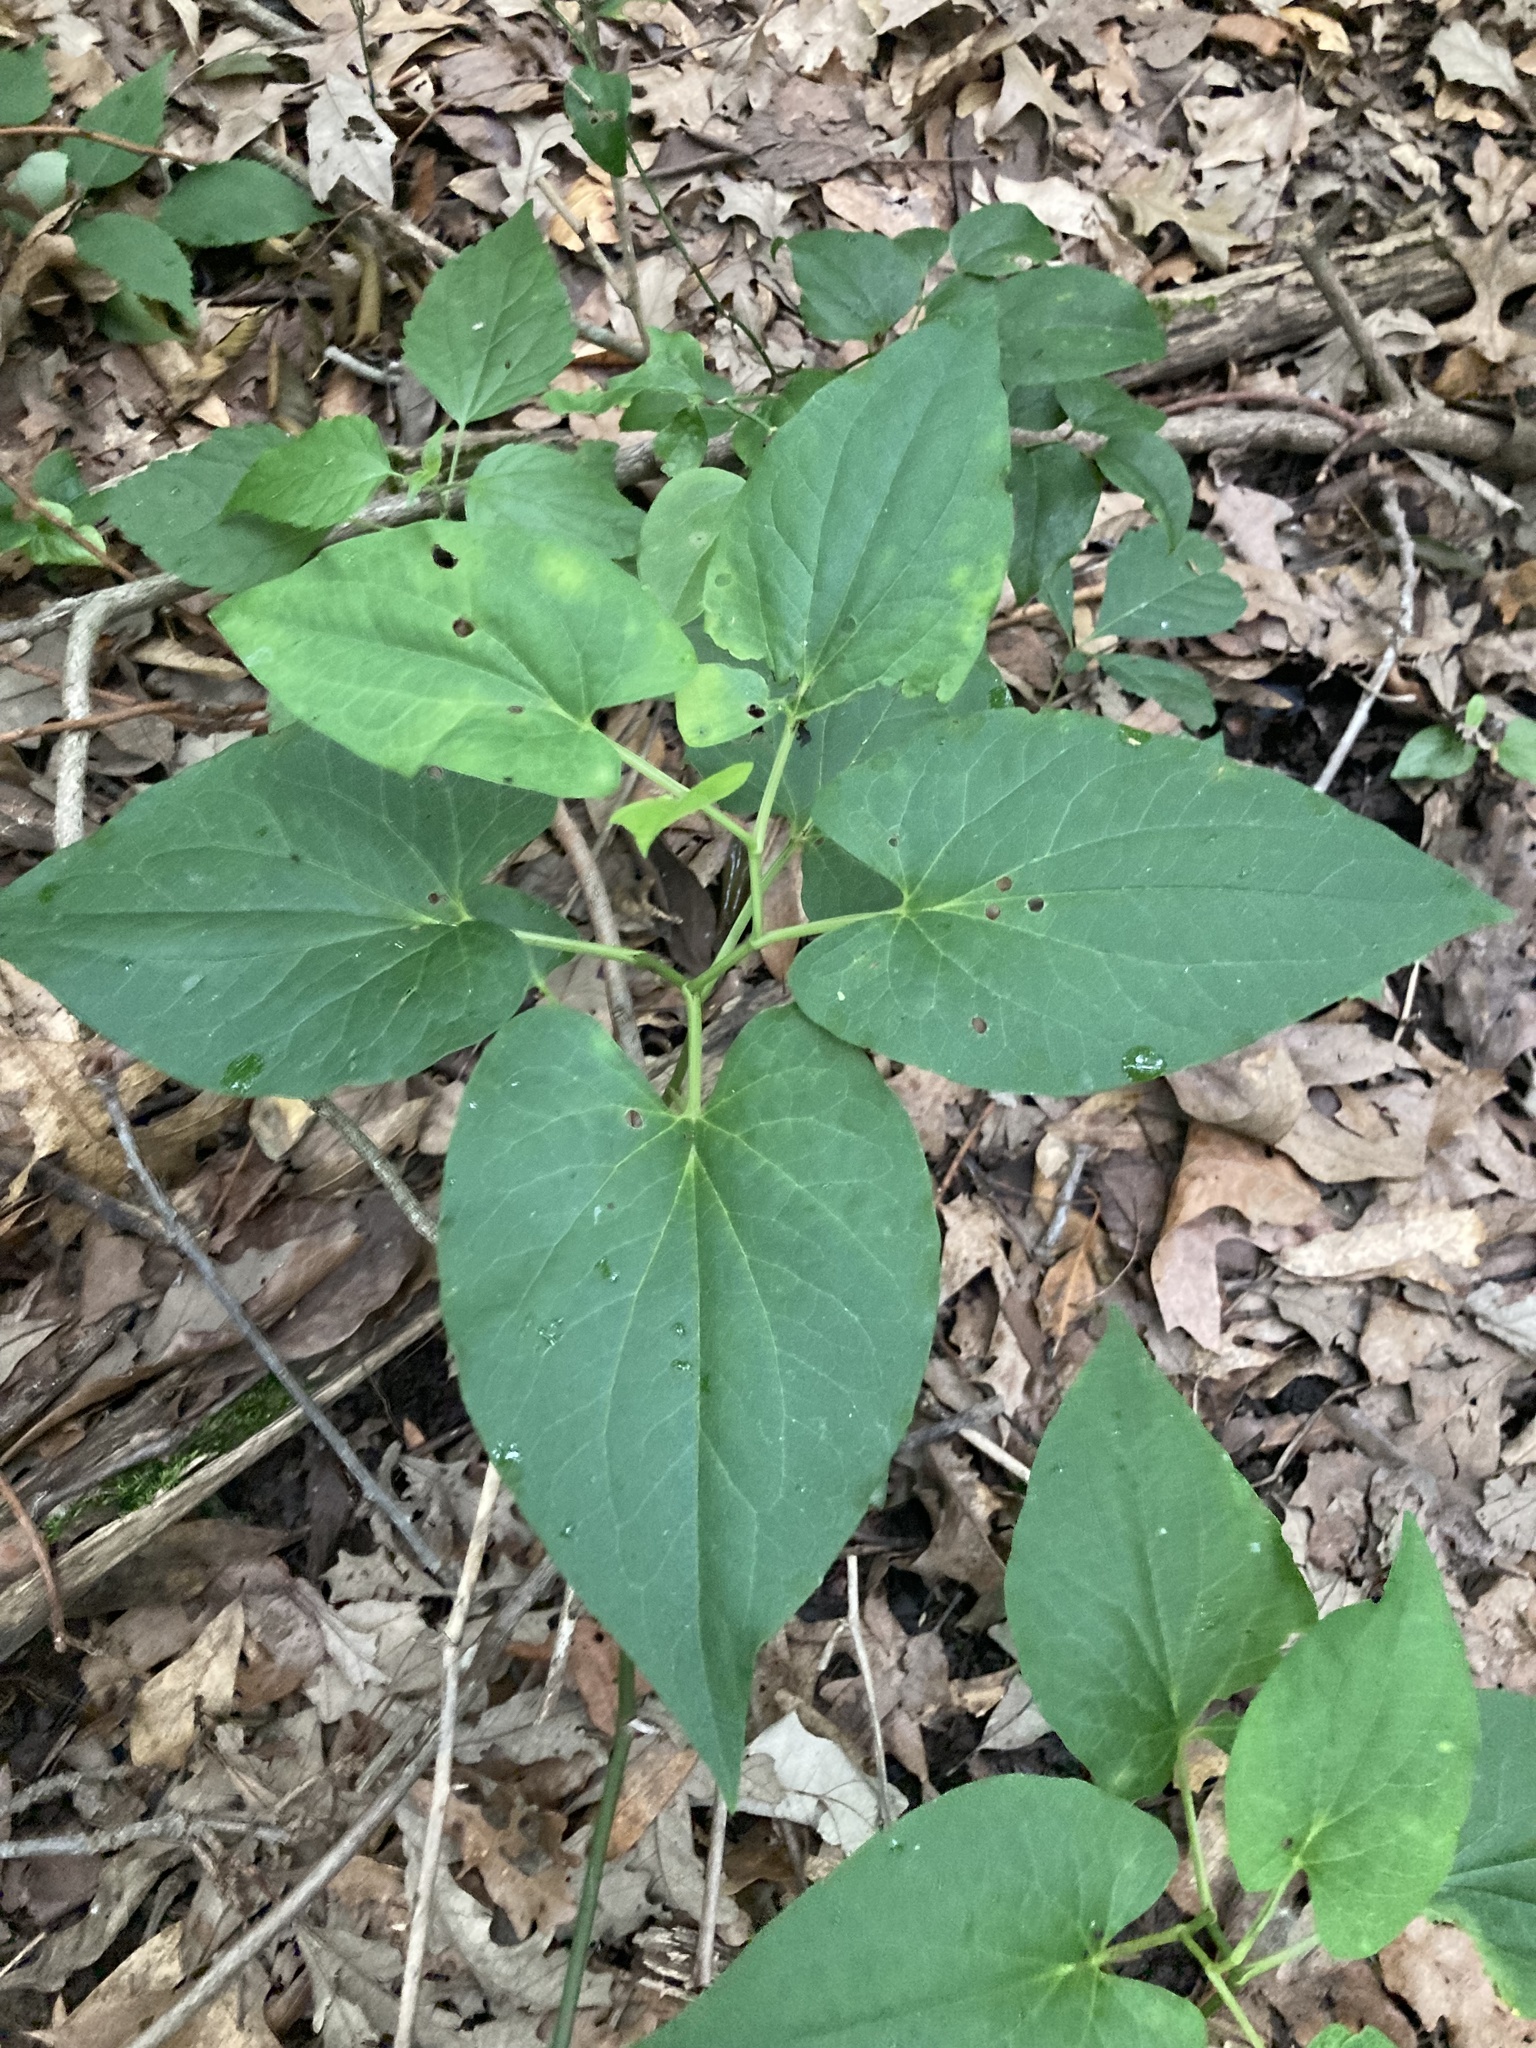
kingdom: Plantae
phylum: Tracheophyta
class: Magnoliopsida
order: Piperales
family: Saururaceae
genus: Saururus
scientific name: Saururus cernuus
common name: Lizard's-tail
